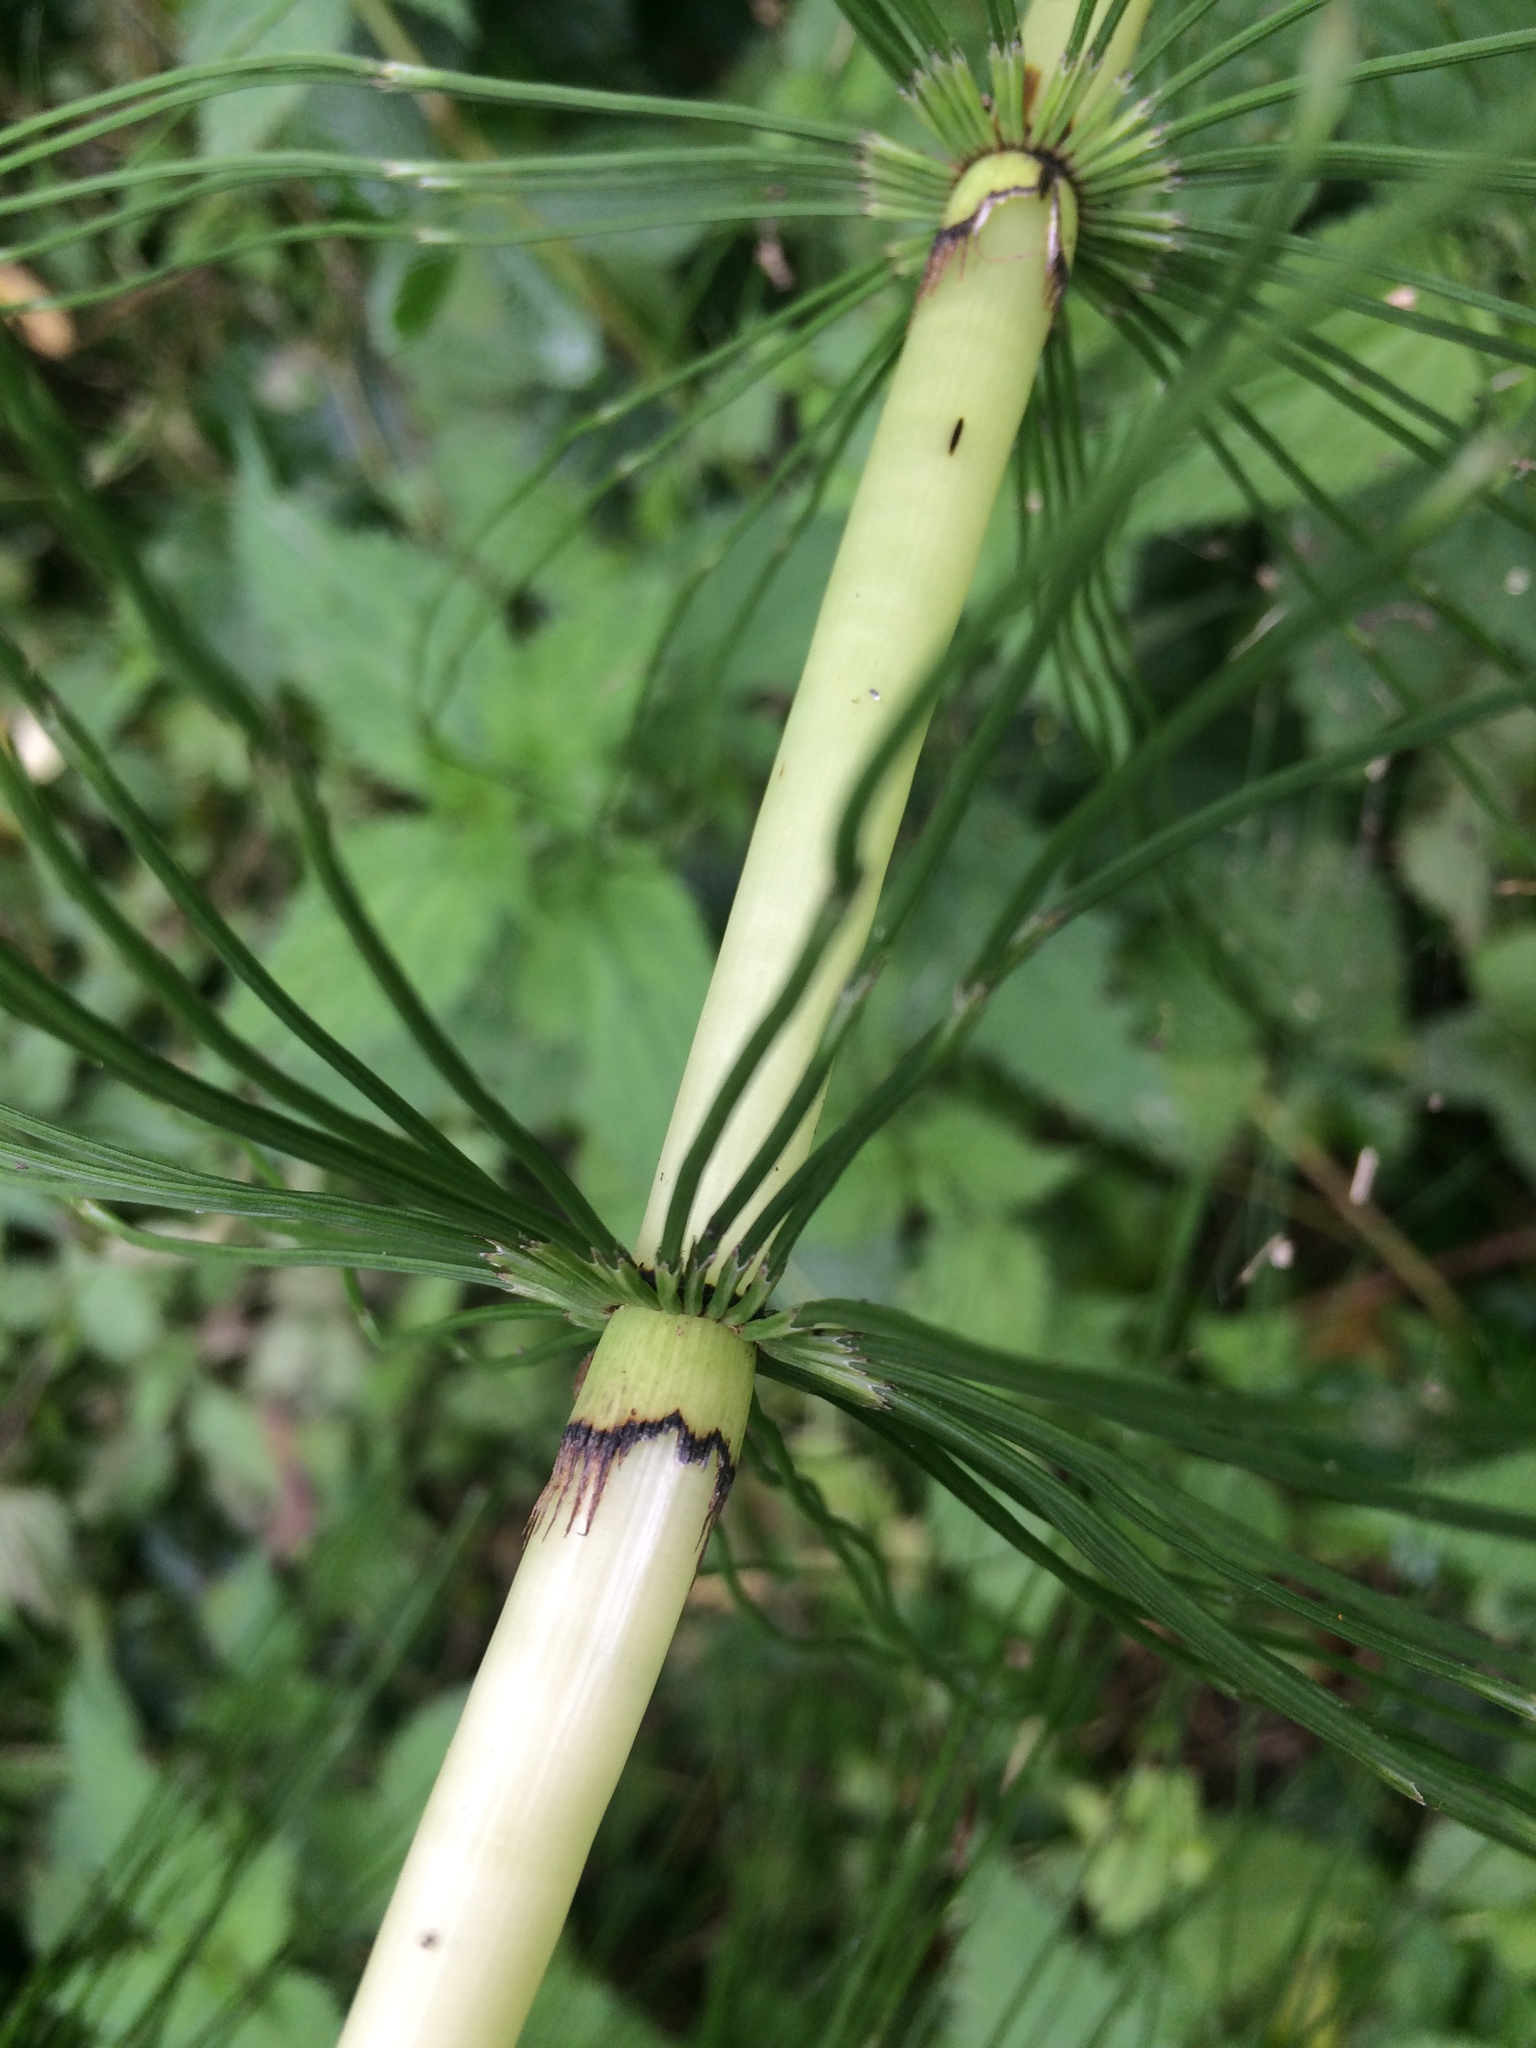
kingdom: Plantae
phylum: Tracheophyta
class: Polypodiopsida
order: Equisetales
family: Equisetaceae
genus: Equisetum
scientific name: Equisetum telmateia
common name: Great horsetail
